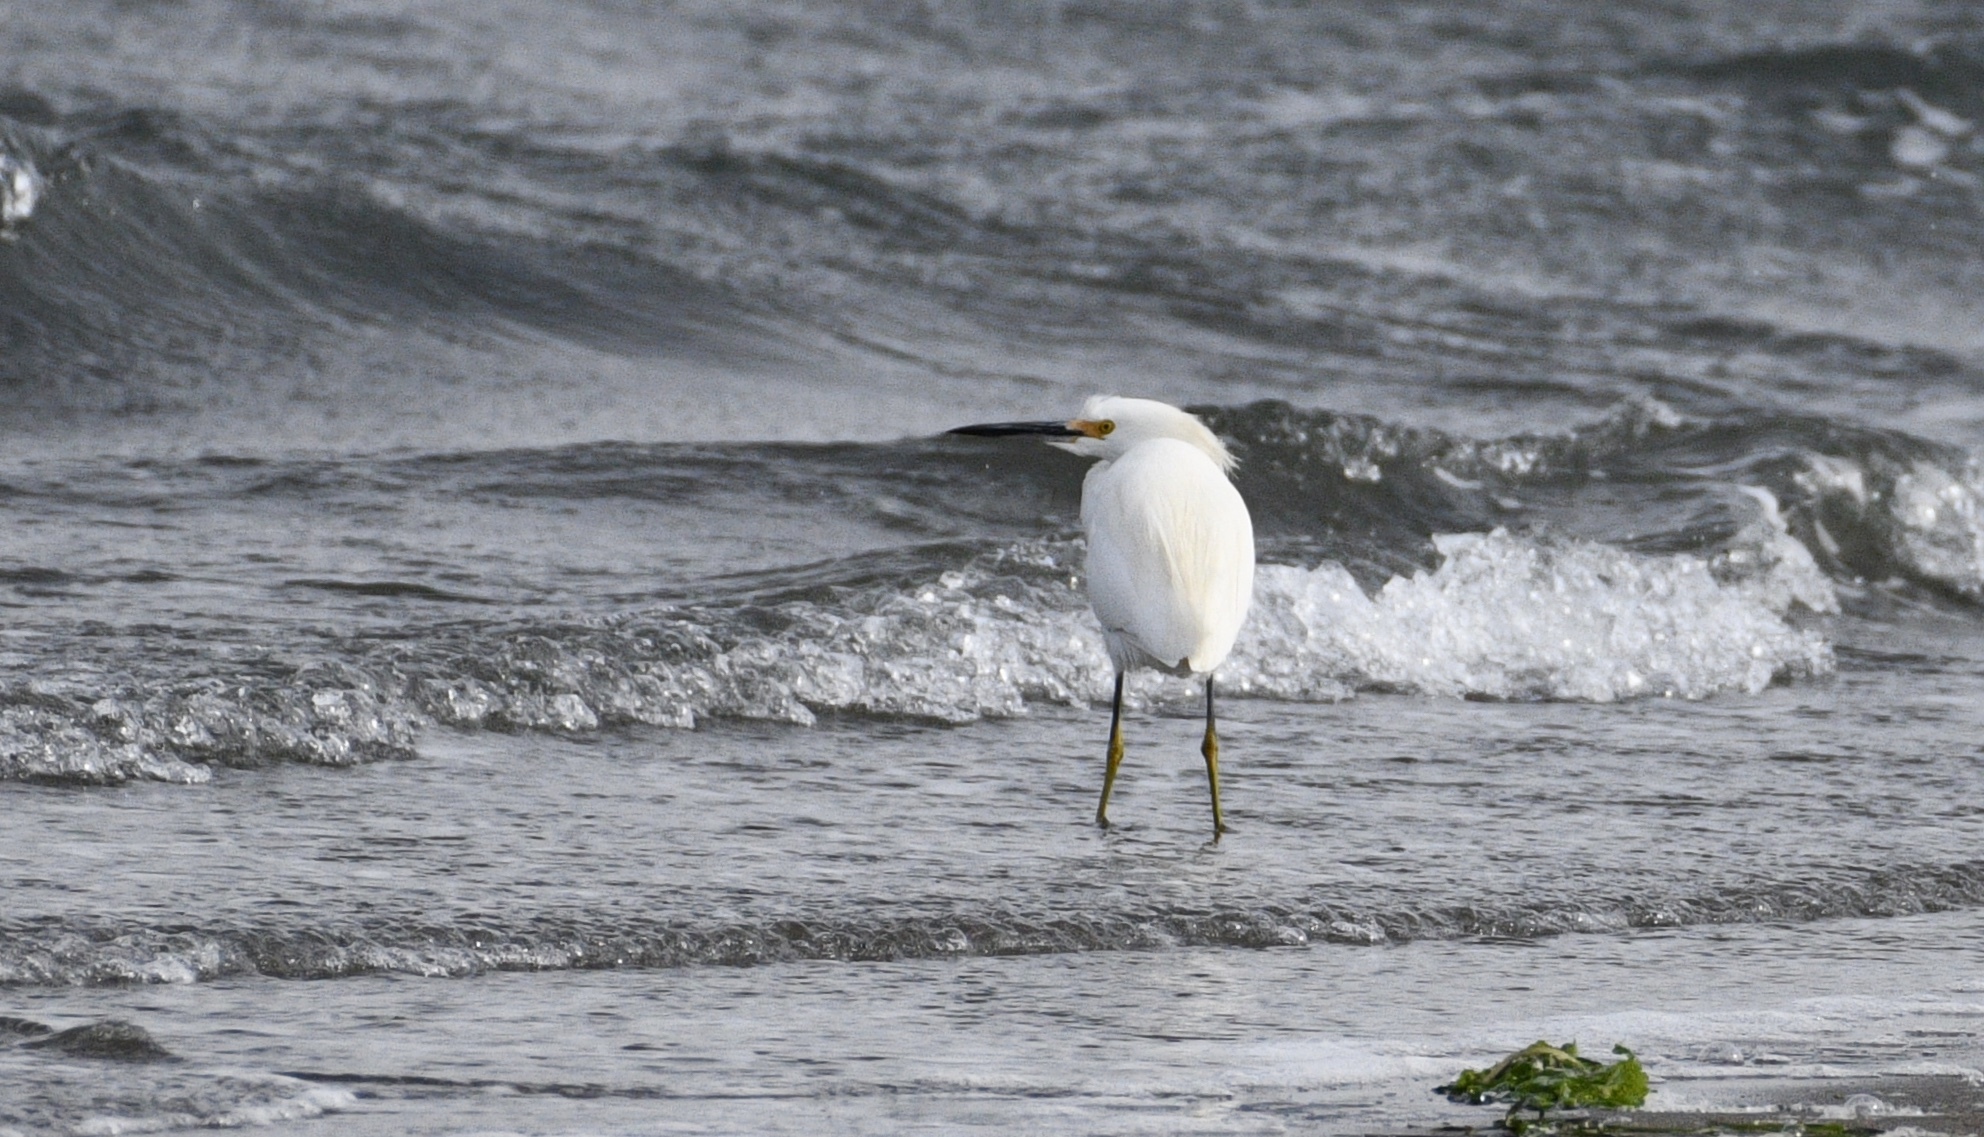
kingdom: Animalia
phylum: Chordata
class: Aves
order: Pelecaniformes
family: Ardeidae
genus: Egretta
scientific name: Egretta thula
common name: Snowy egret
